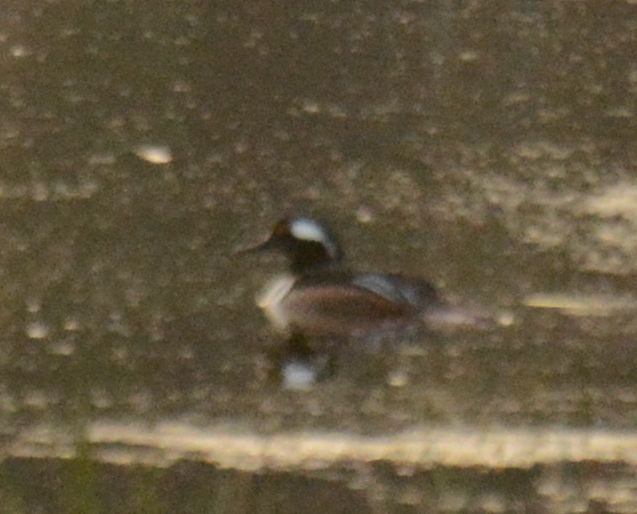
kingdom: Animalia
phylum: Chordata
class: Aves
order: Anseriformes
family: Anatidae
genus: Lophodytes
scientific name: Lophodytes cucullatus
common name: Hooded merganser
